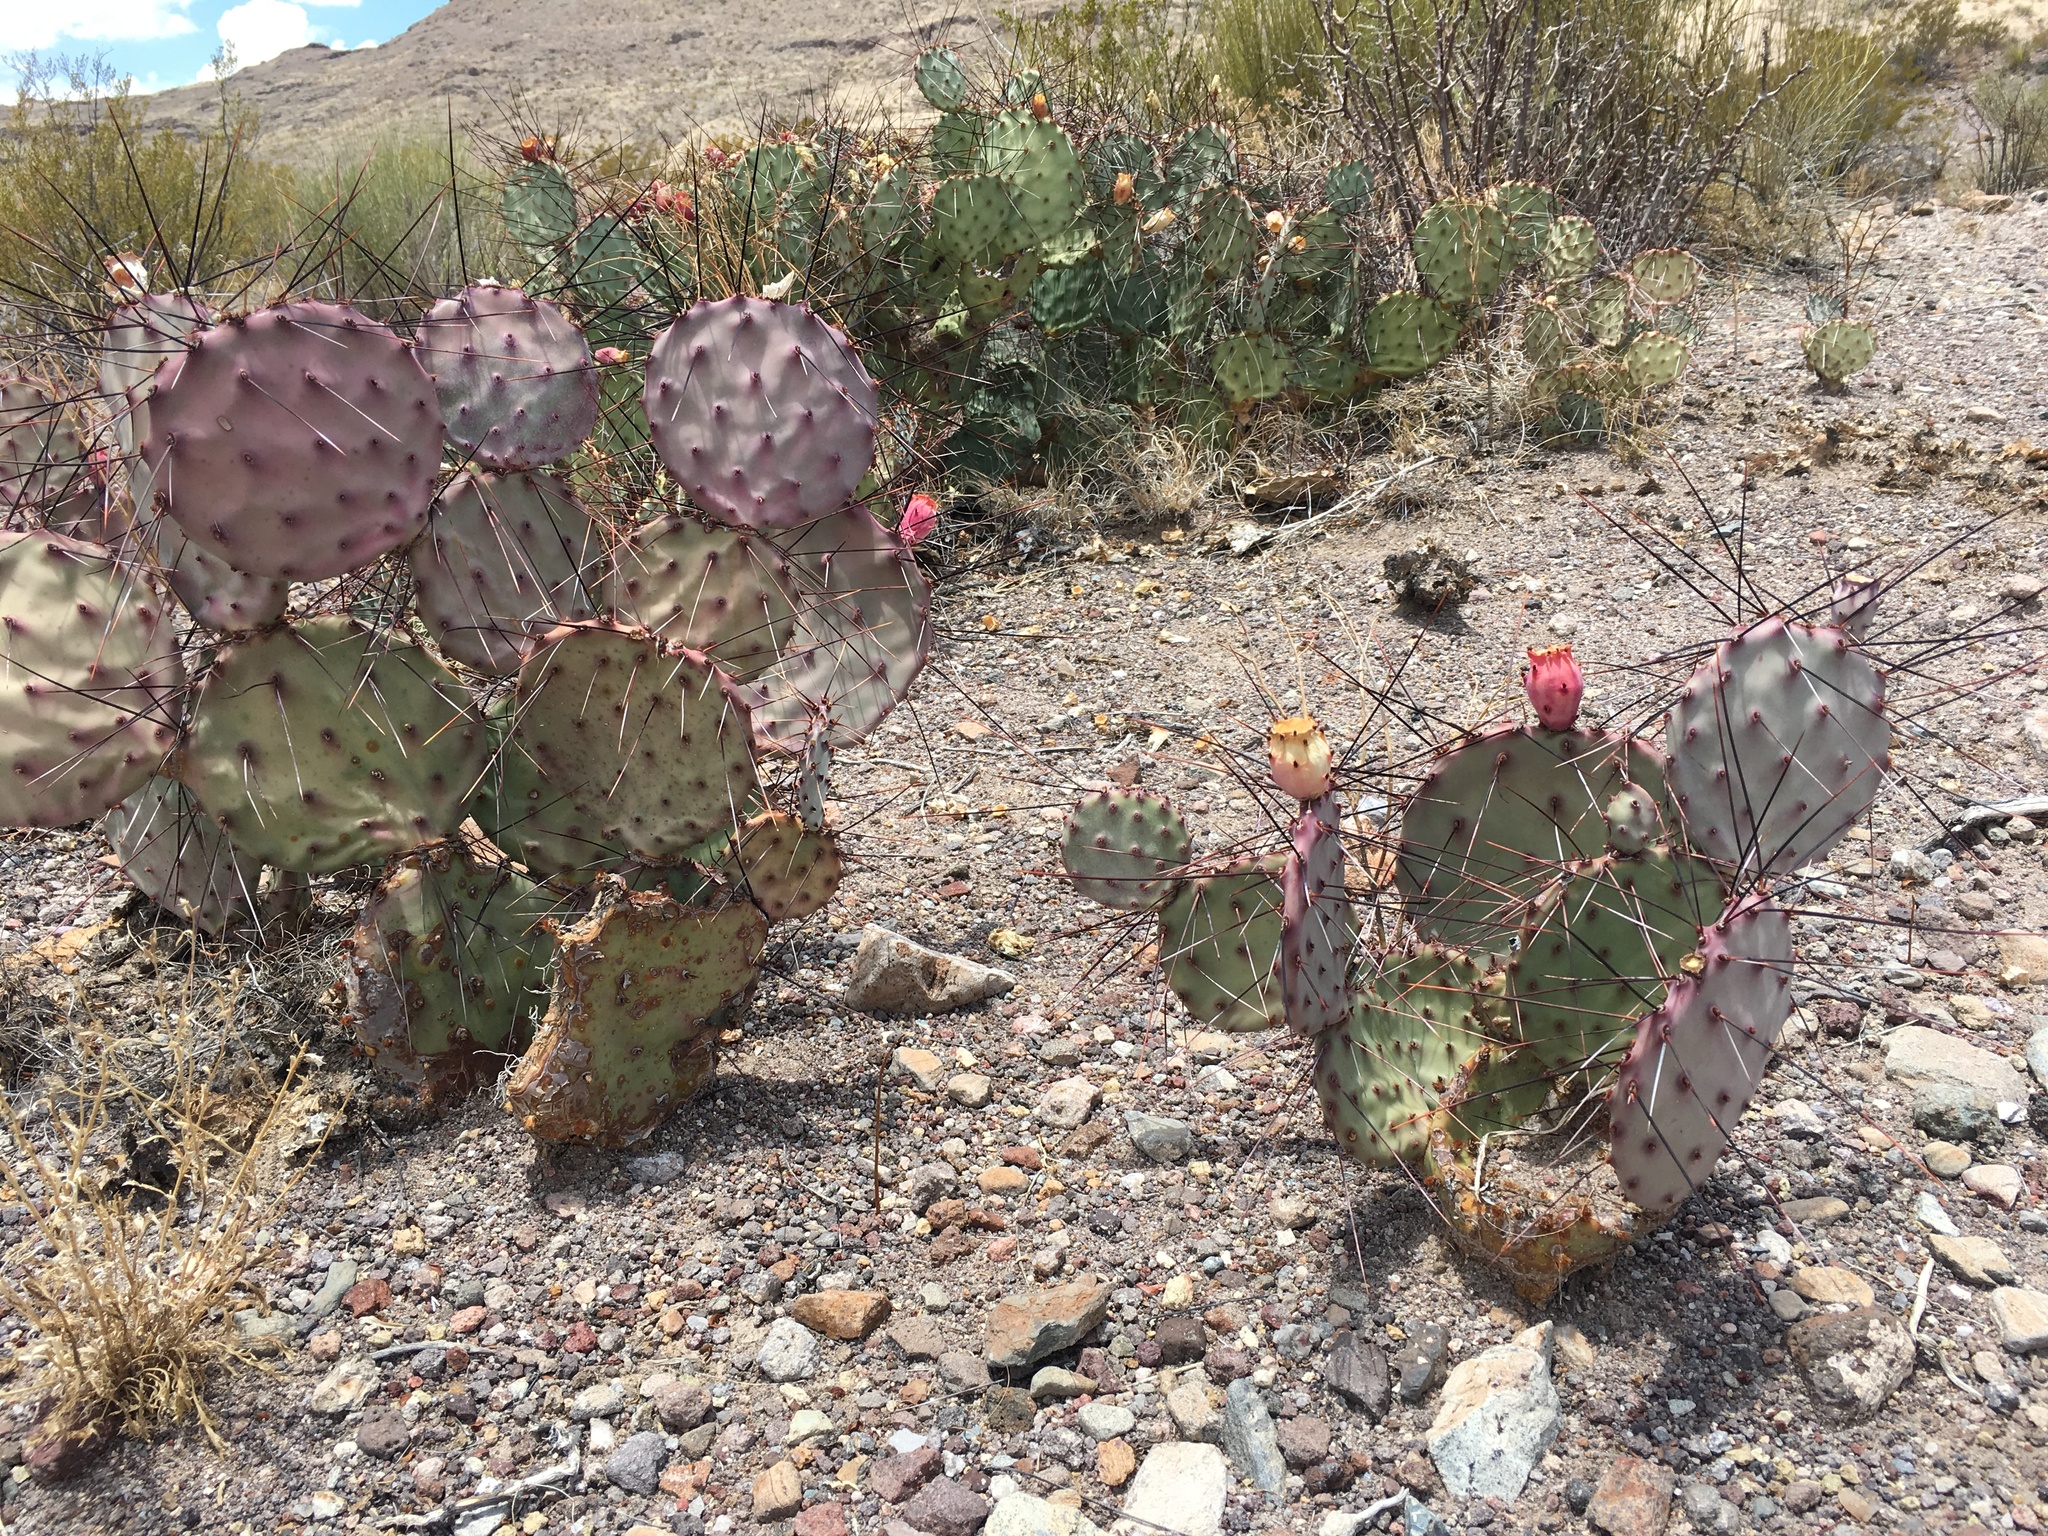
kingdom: Plantae
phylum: Tracheophyta
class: Magnoliopsida
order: Caryophyllales
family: Cactaceae
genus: Opuntia
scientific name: Opuntia phaeacantha
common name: New mexico prickly-pear
